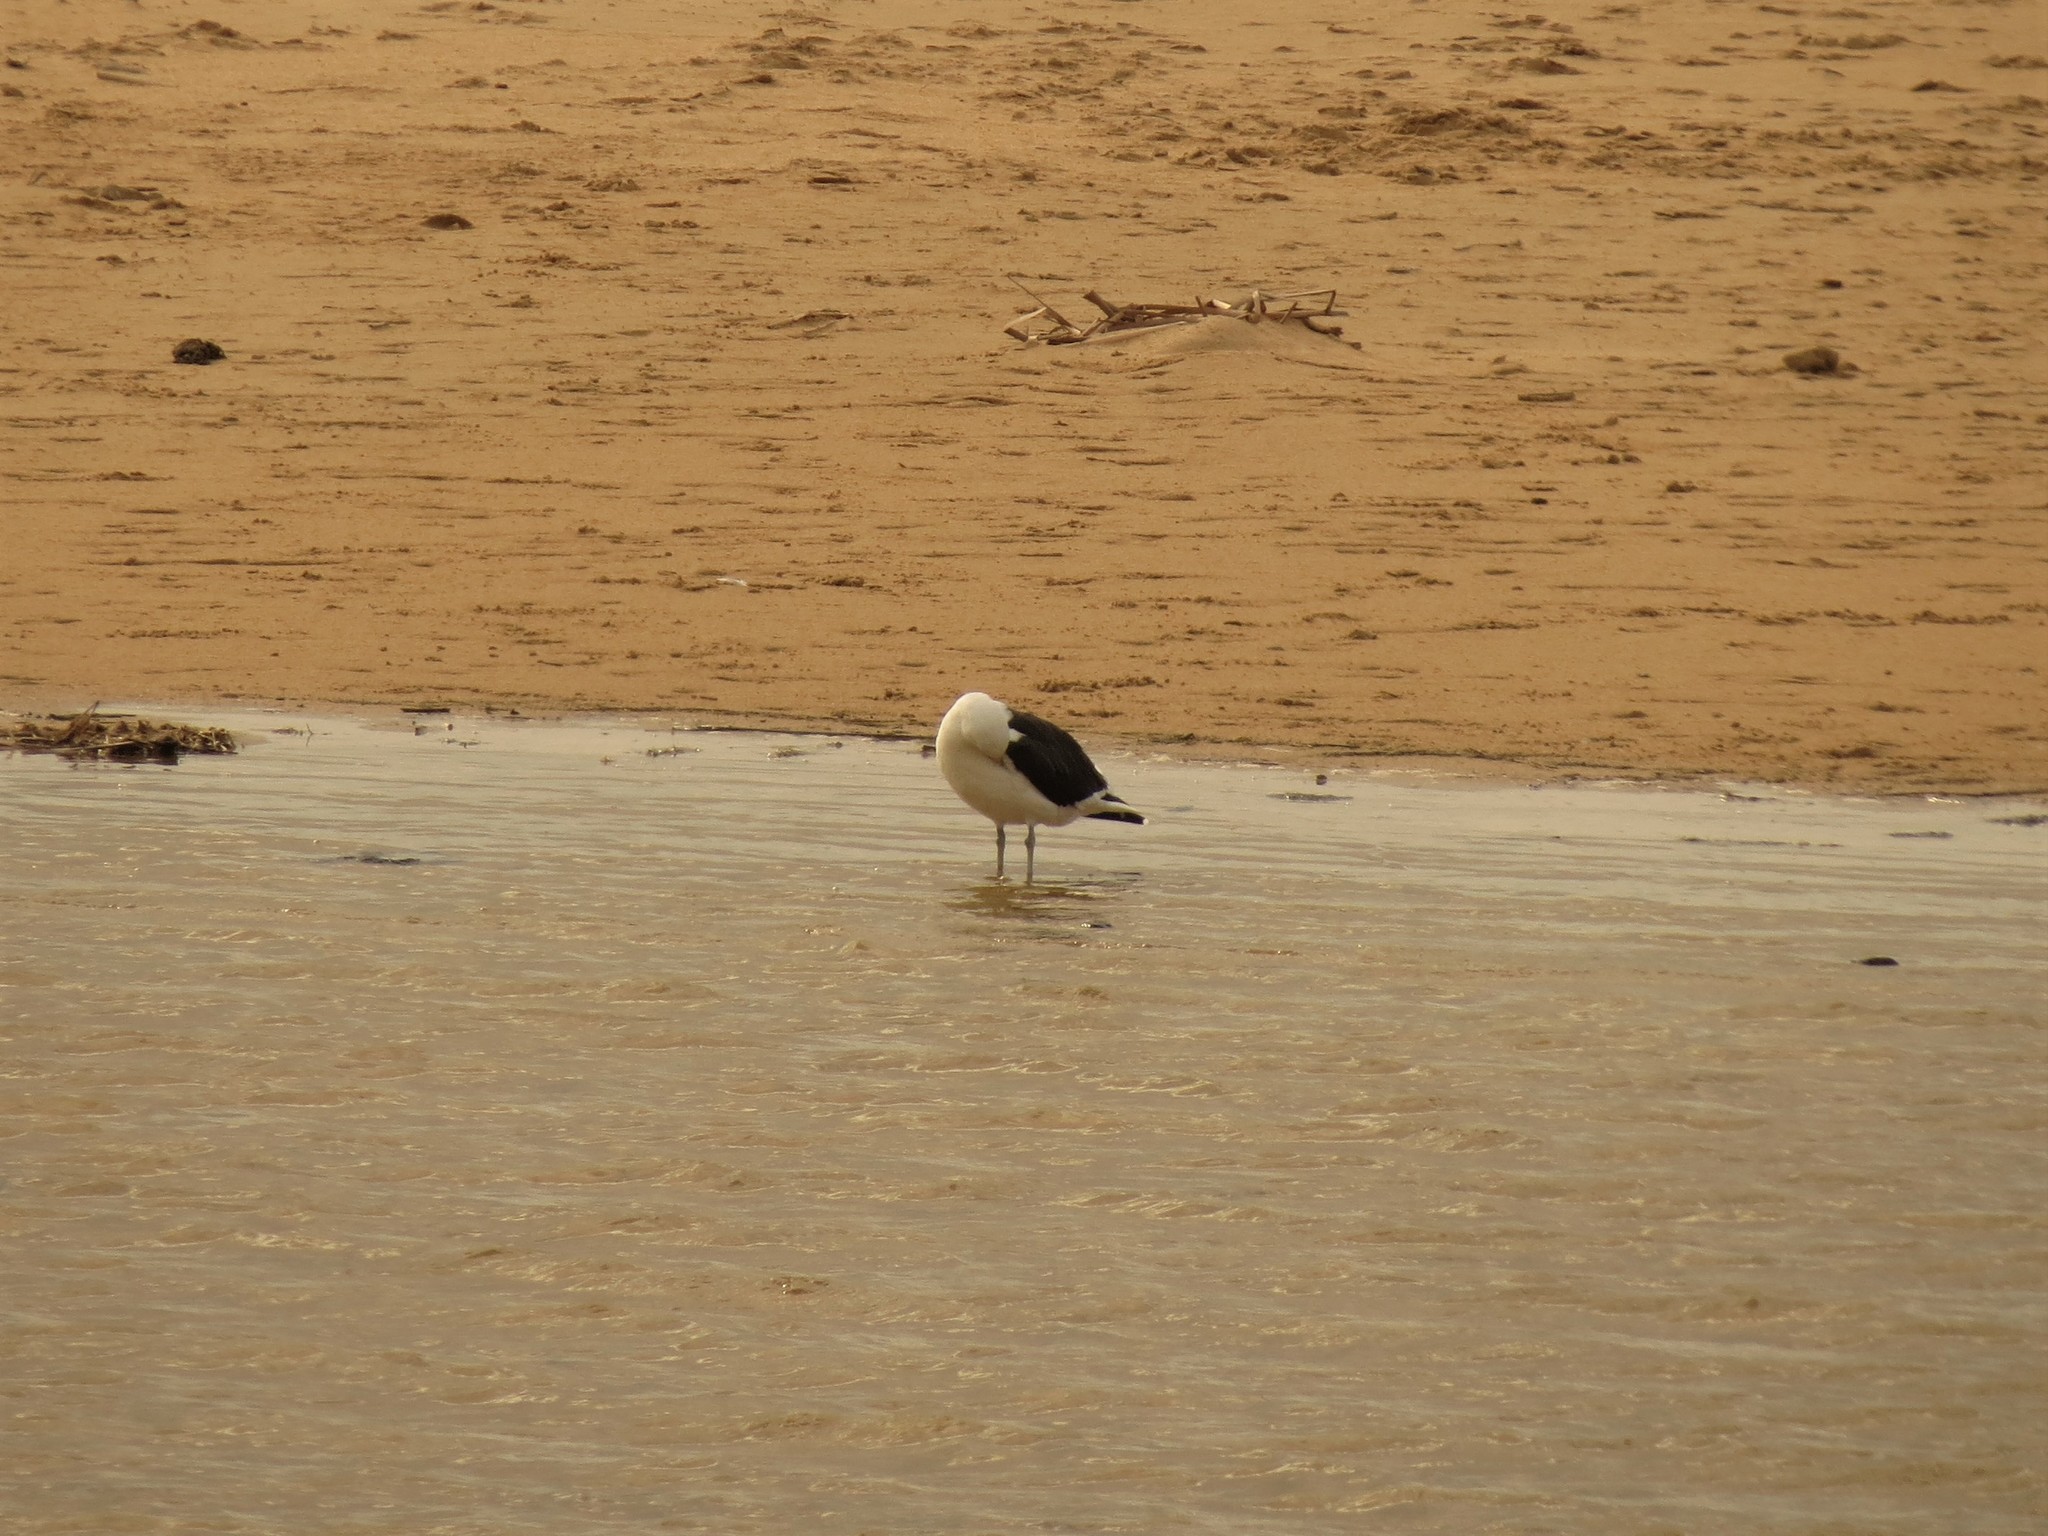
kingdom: Animalia
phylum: Chordata
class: Aves
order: Charadriiformes
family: Laridae
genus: Larus
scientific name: Larus dominicanus
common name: Kelp gull
